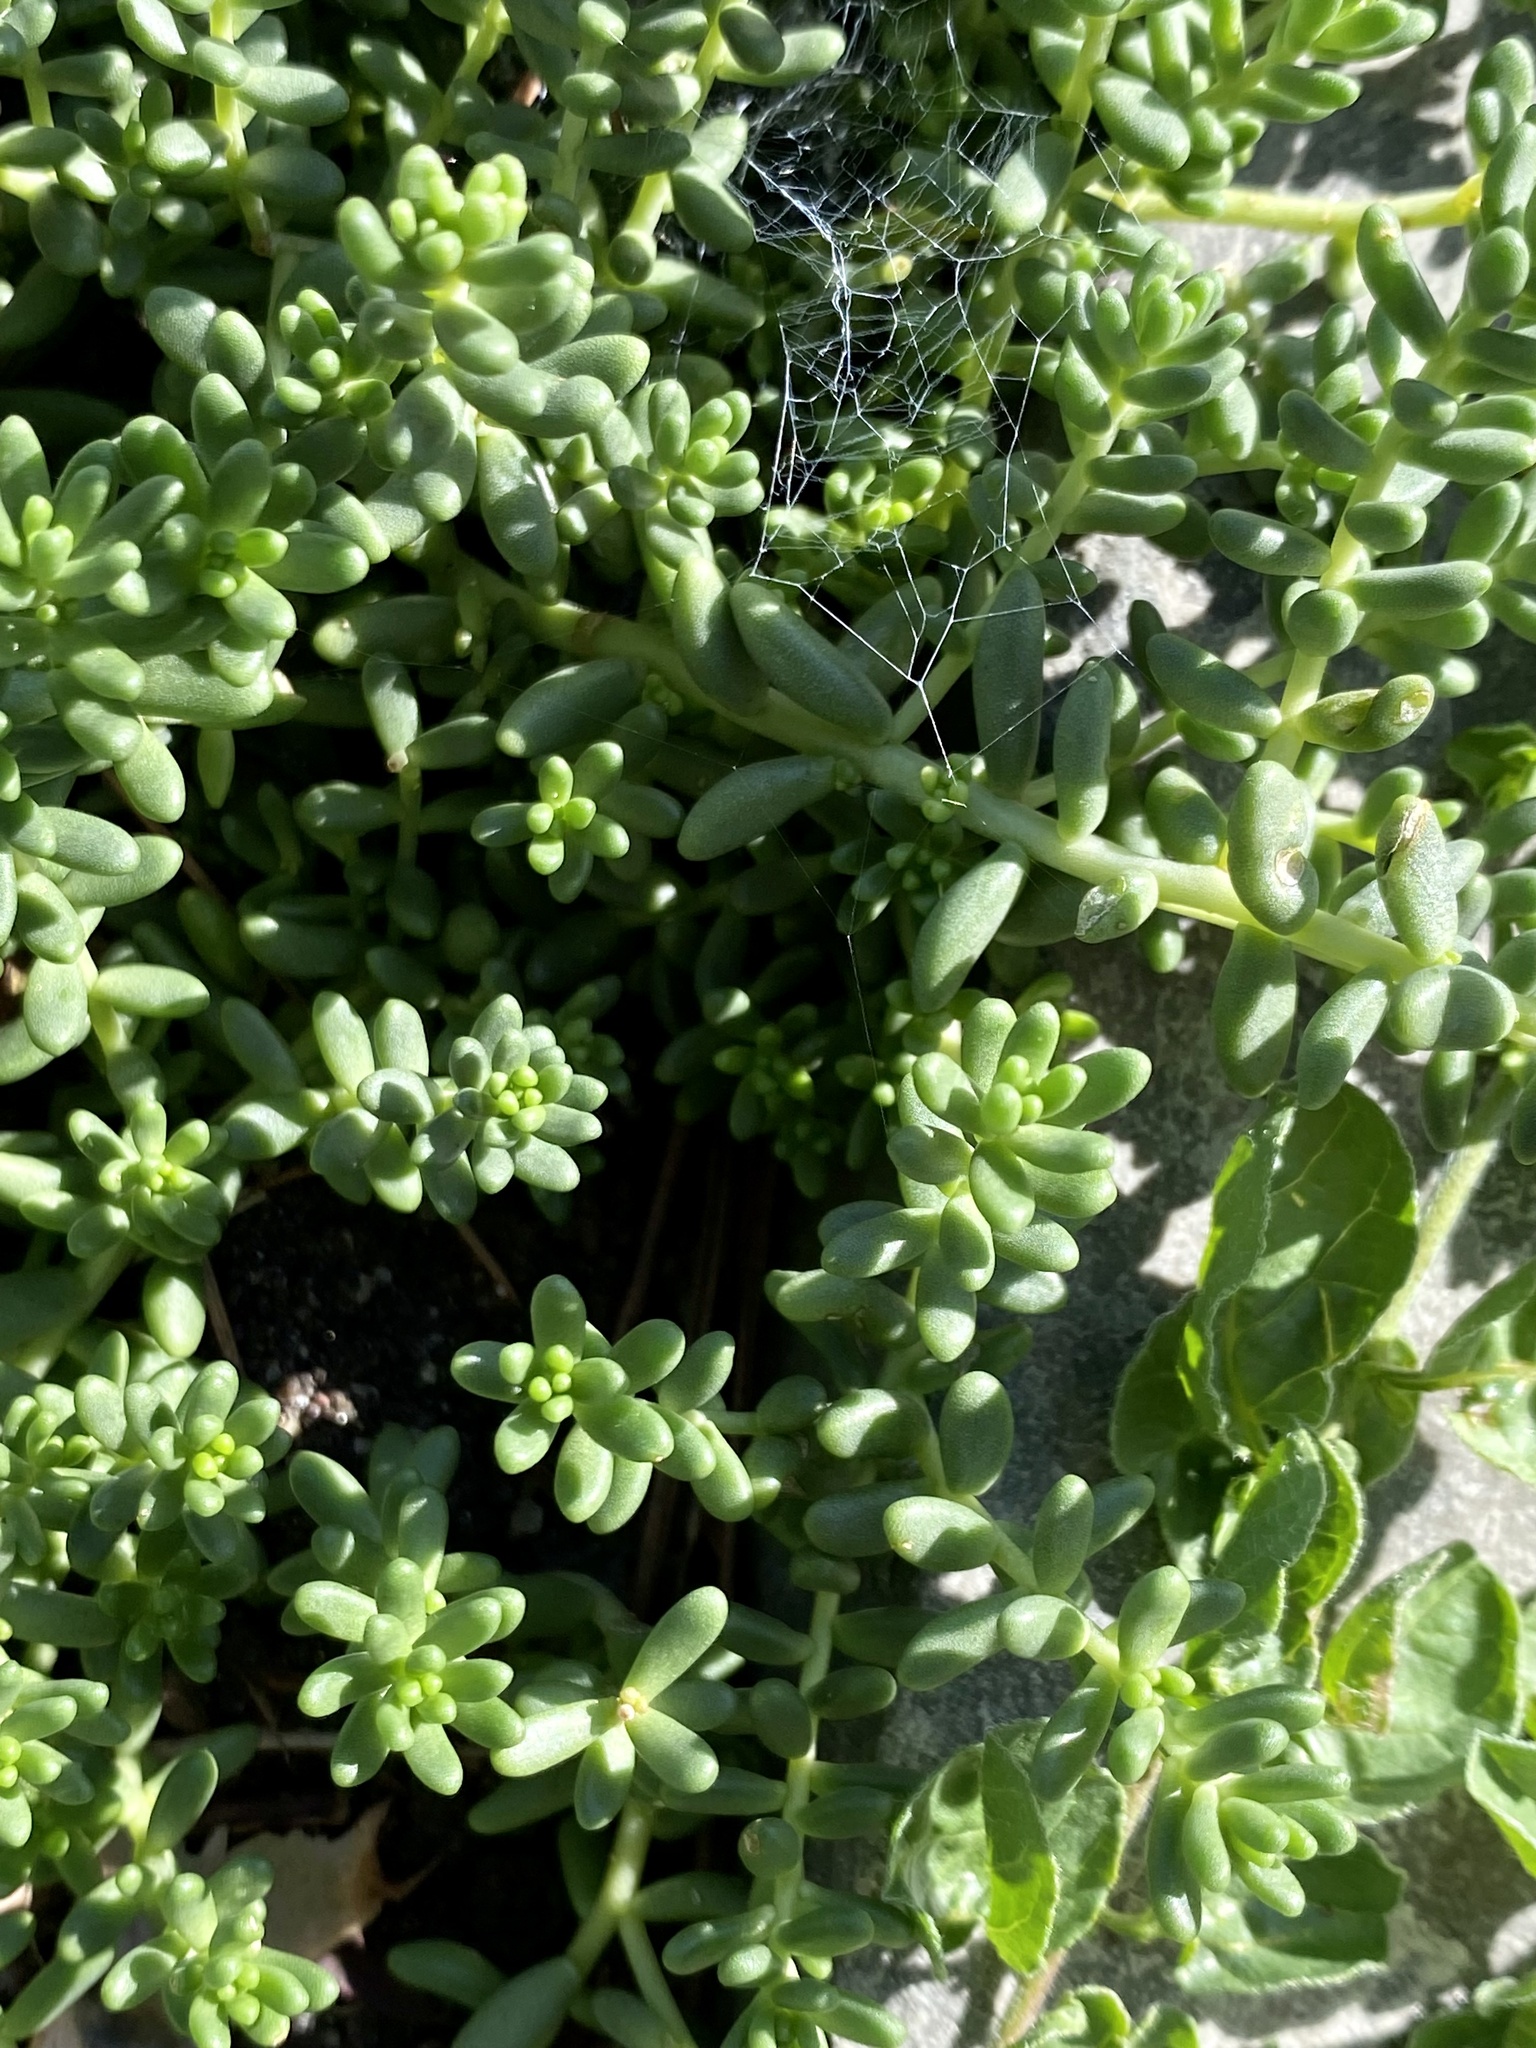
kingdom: Plantae
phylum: Tracheophyta
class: Magnoliopsida
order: Saxifragales
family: Crassulaceae
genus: Sedum
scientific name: Sedum album
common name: White stonecrop
